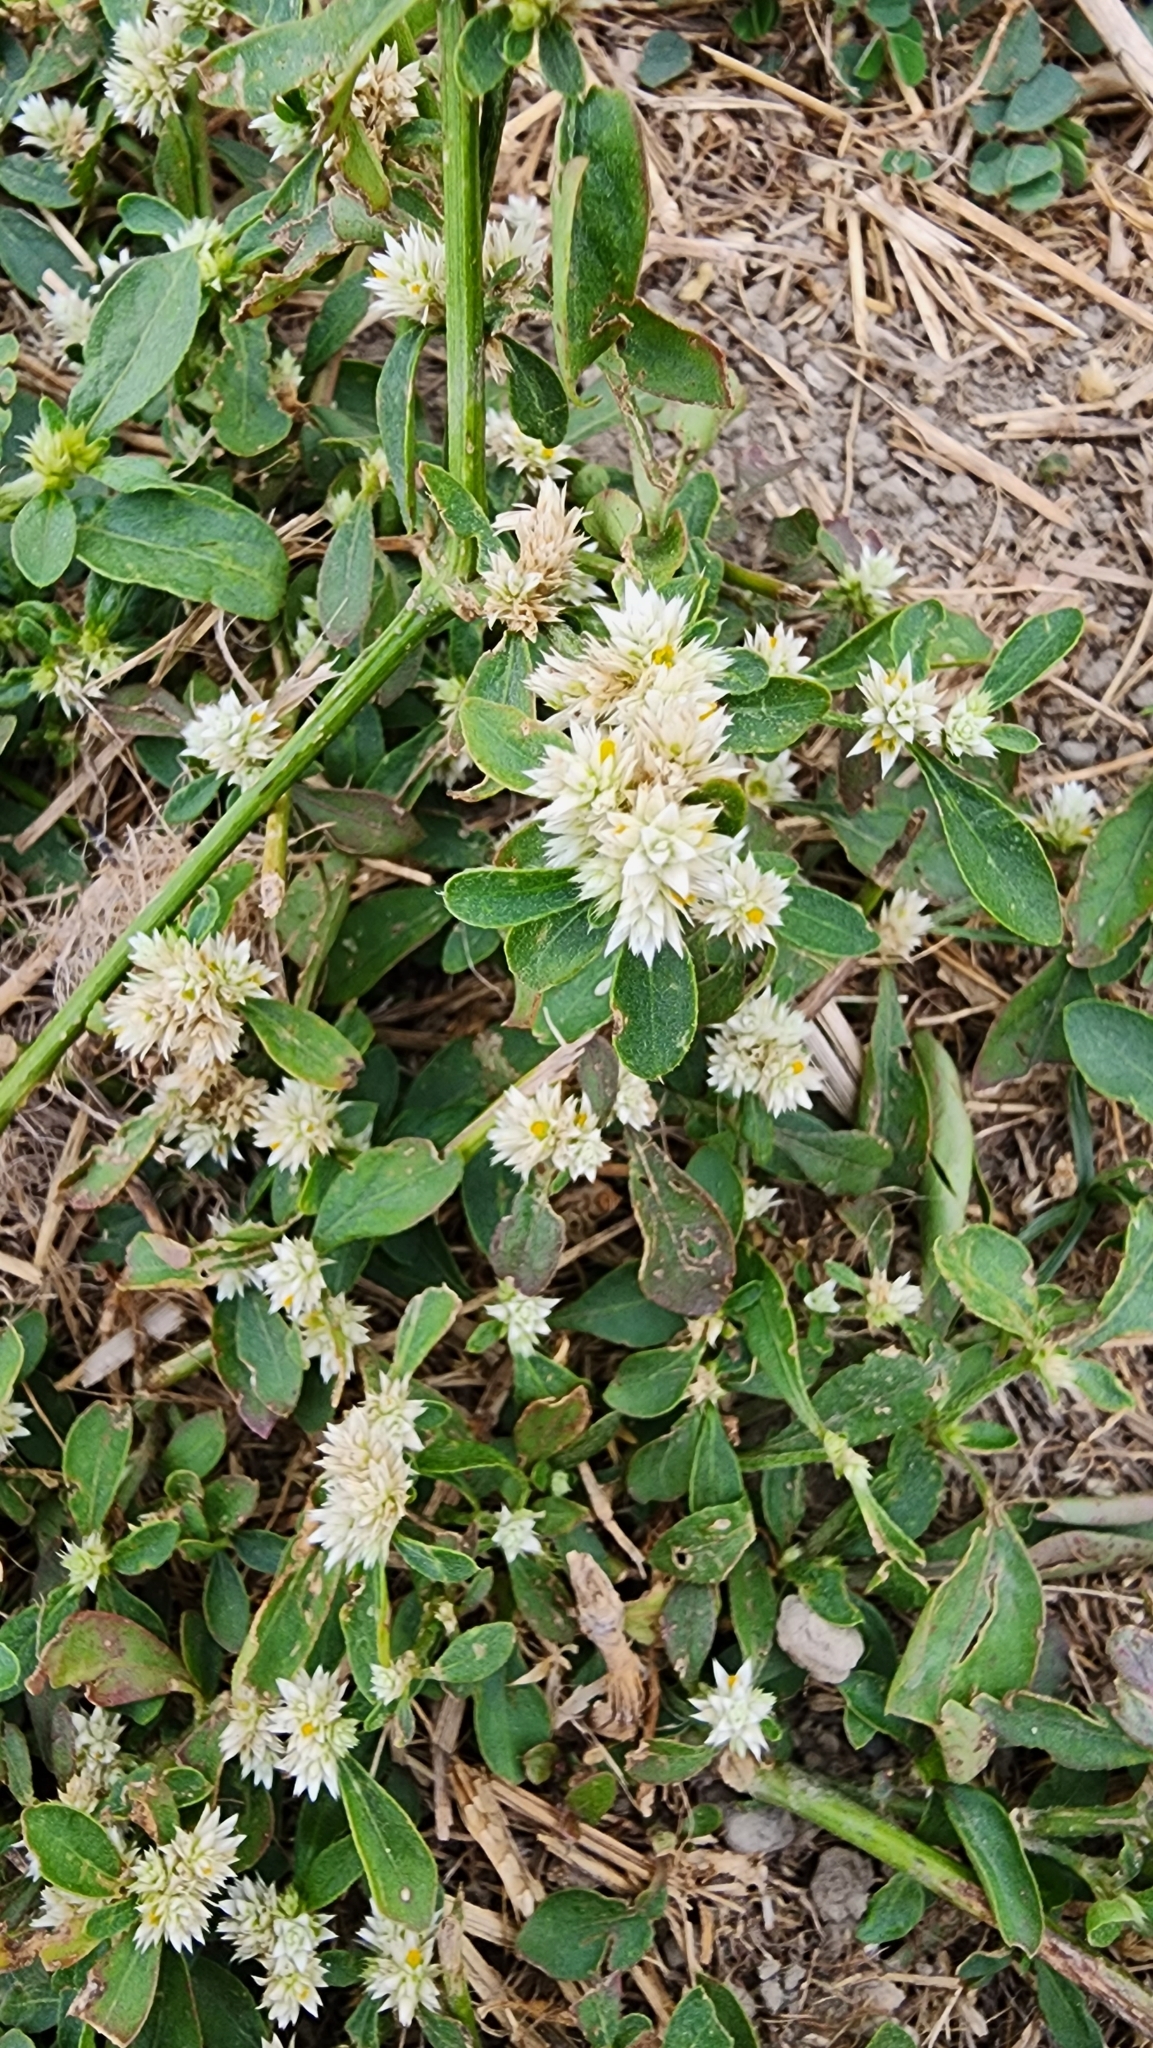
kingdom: Plantae
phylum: Tracheophyta
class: Magnoliopsida
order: Caryophyllales
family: Amaranthaceae
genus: Alternanthera
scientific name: Alternanthera ficoidea
